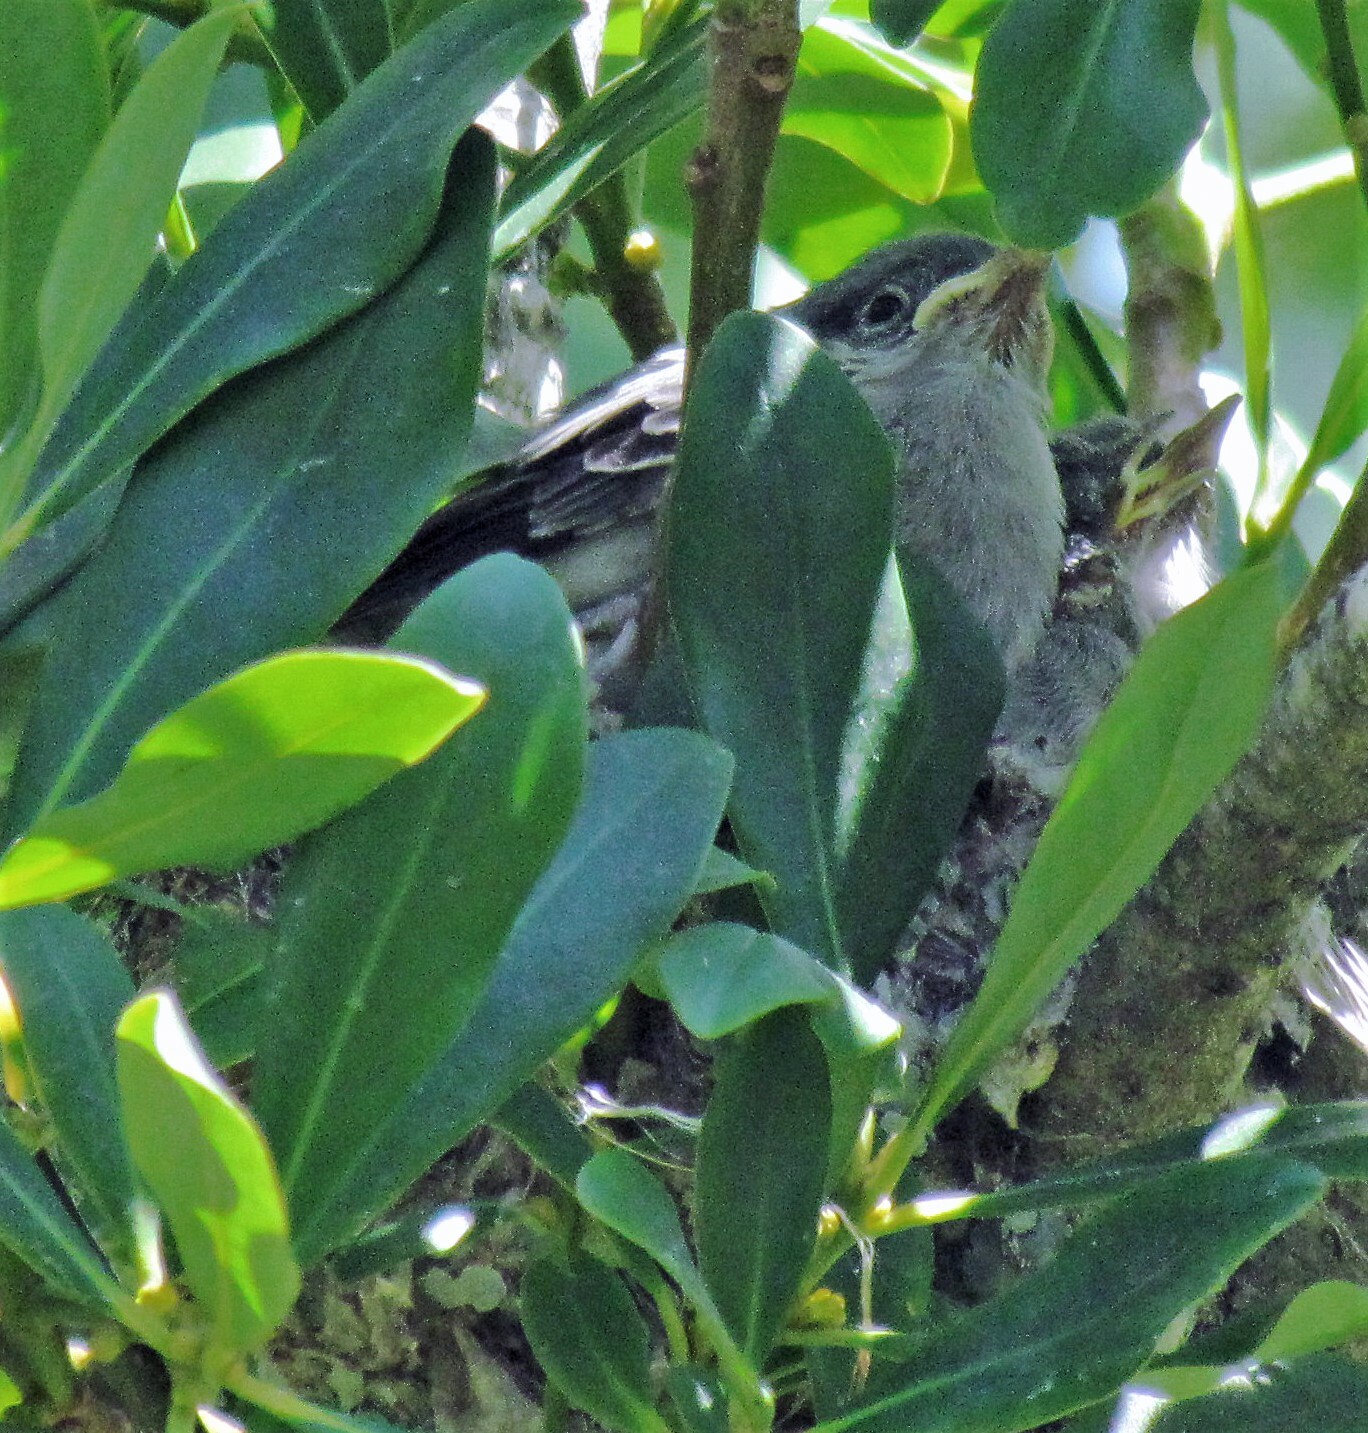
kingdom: Animalia
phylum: Chordata
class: Aves
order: Passeriformes
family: Polioptilidae
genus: Polioptila
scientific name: Polioptila dumicola
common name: Masked gnatcatcher
